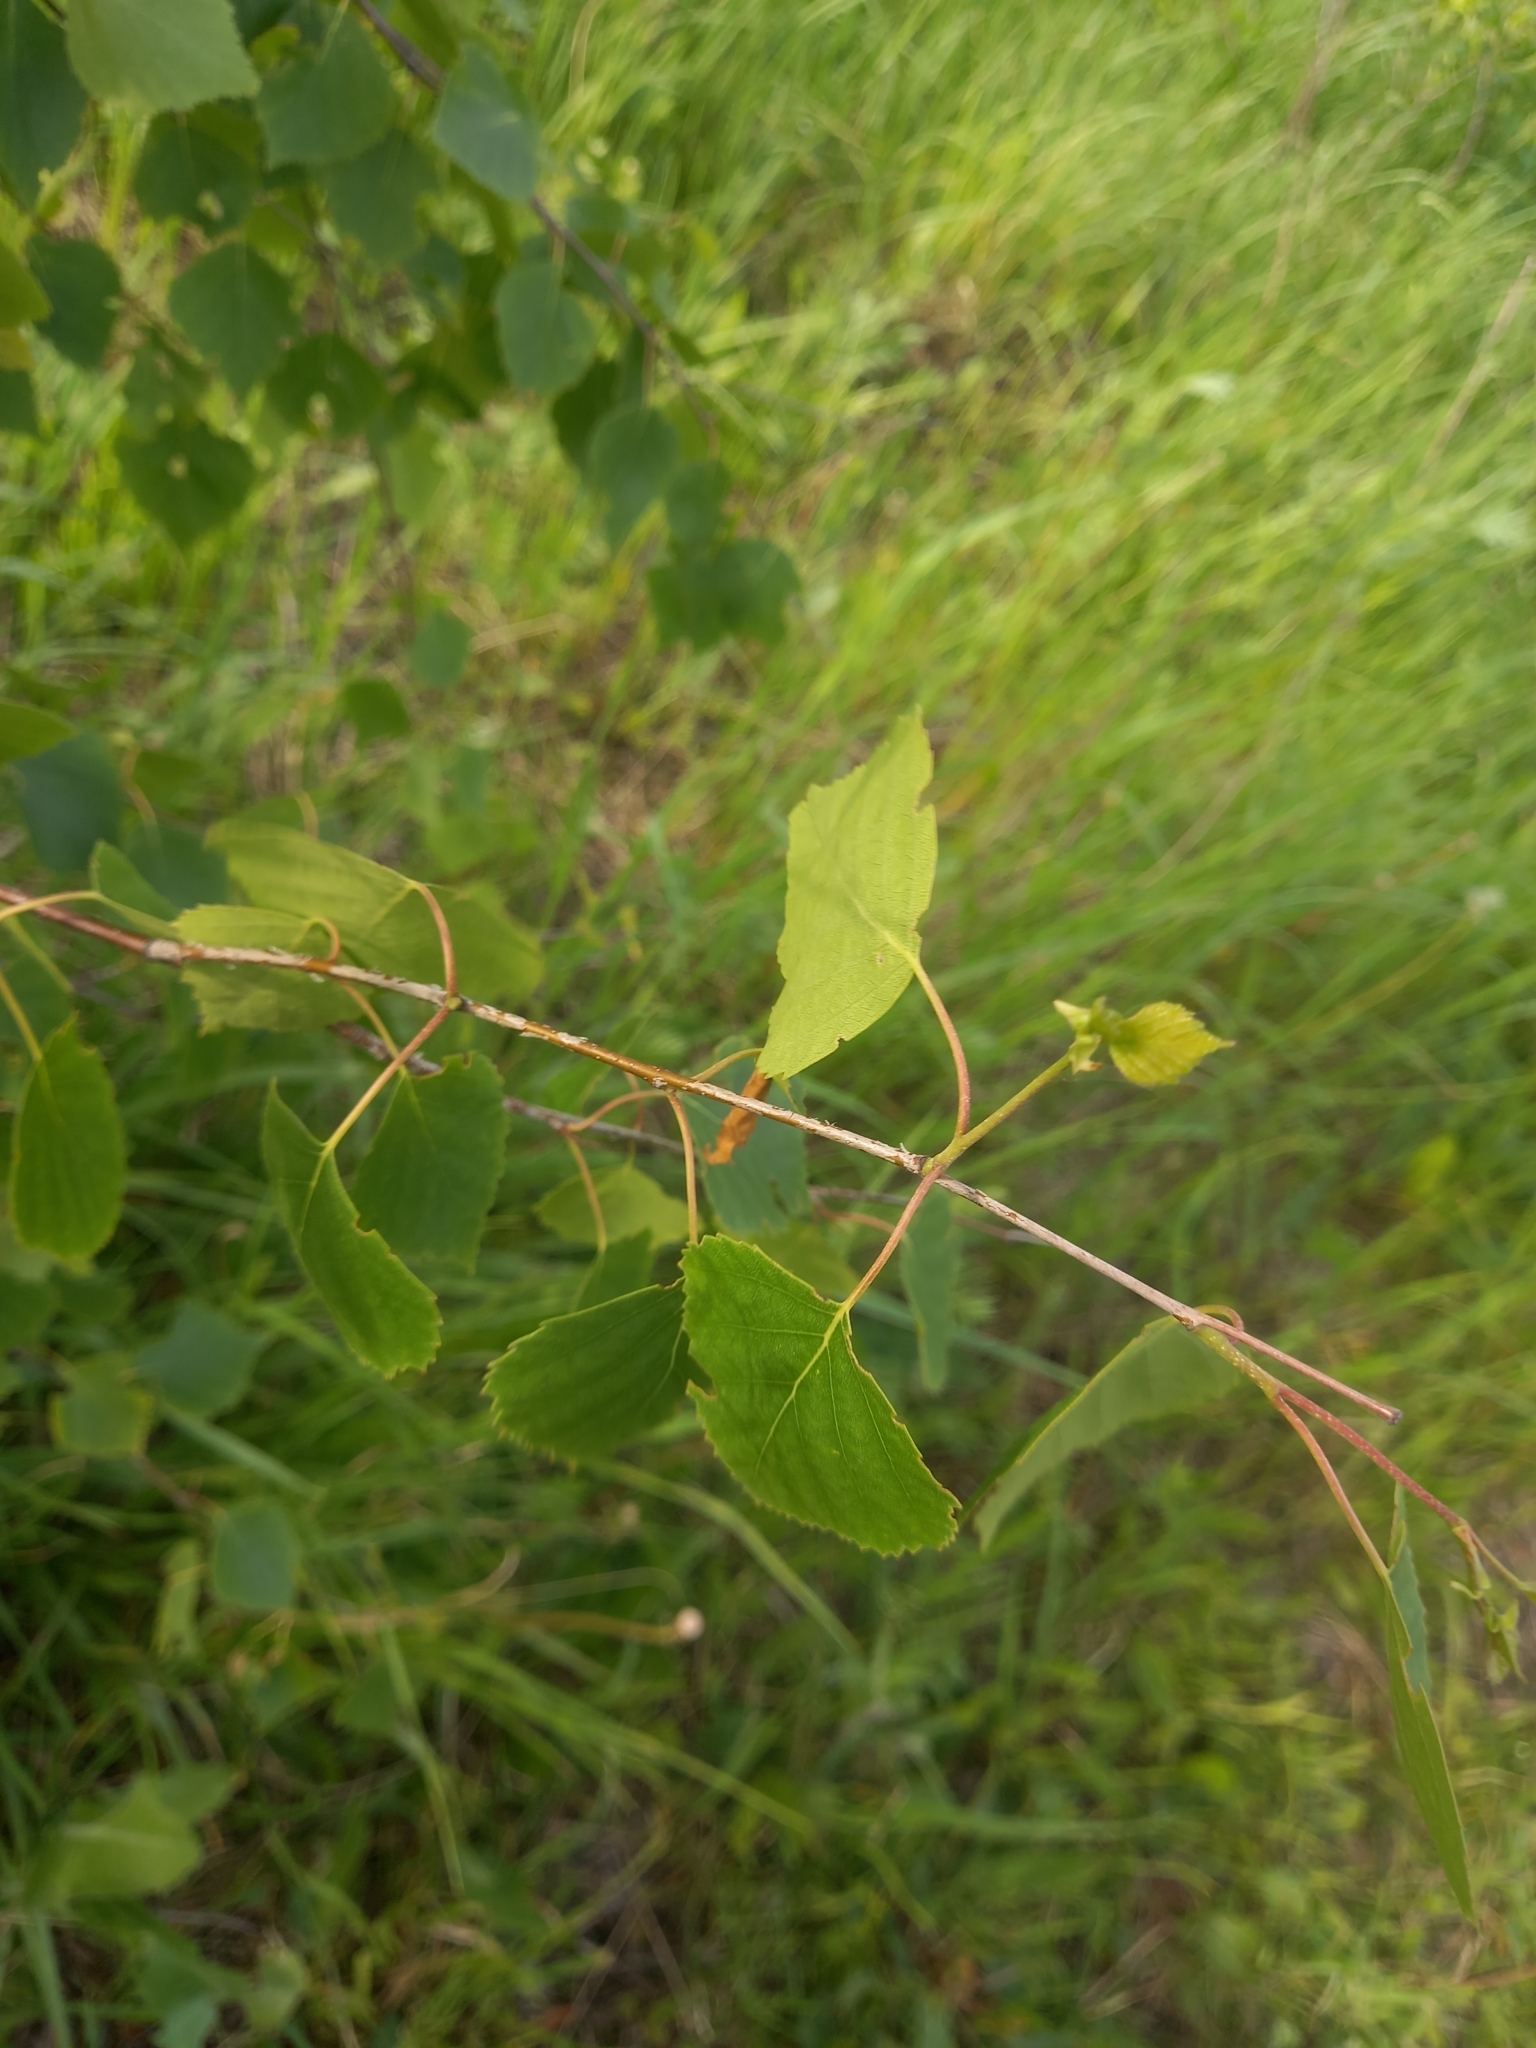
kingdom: Plantae
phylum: Tracheophyta
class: Magnoliopsida
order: Fagales
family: Betulaceae
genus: Betula
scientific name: Betula pendula
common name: Silver birch
